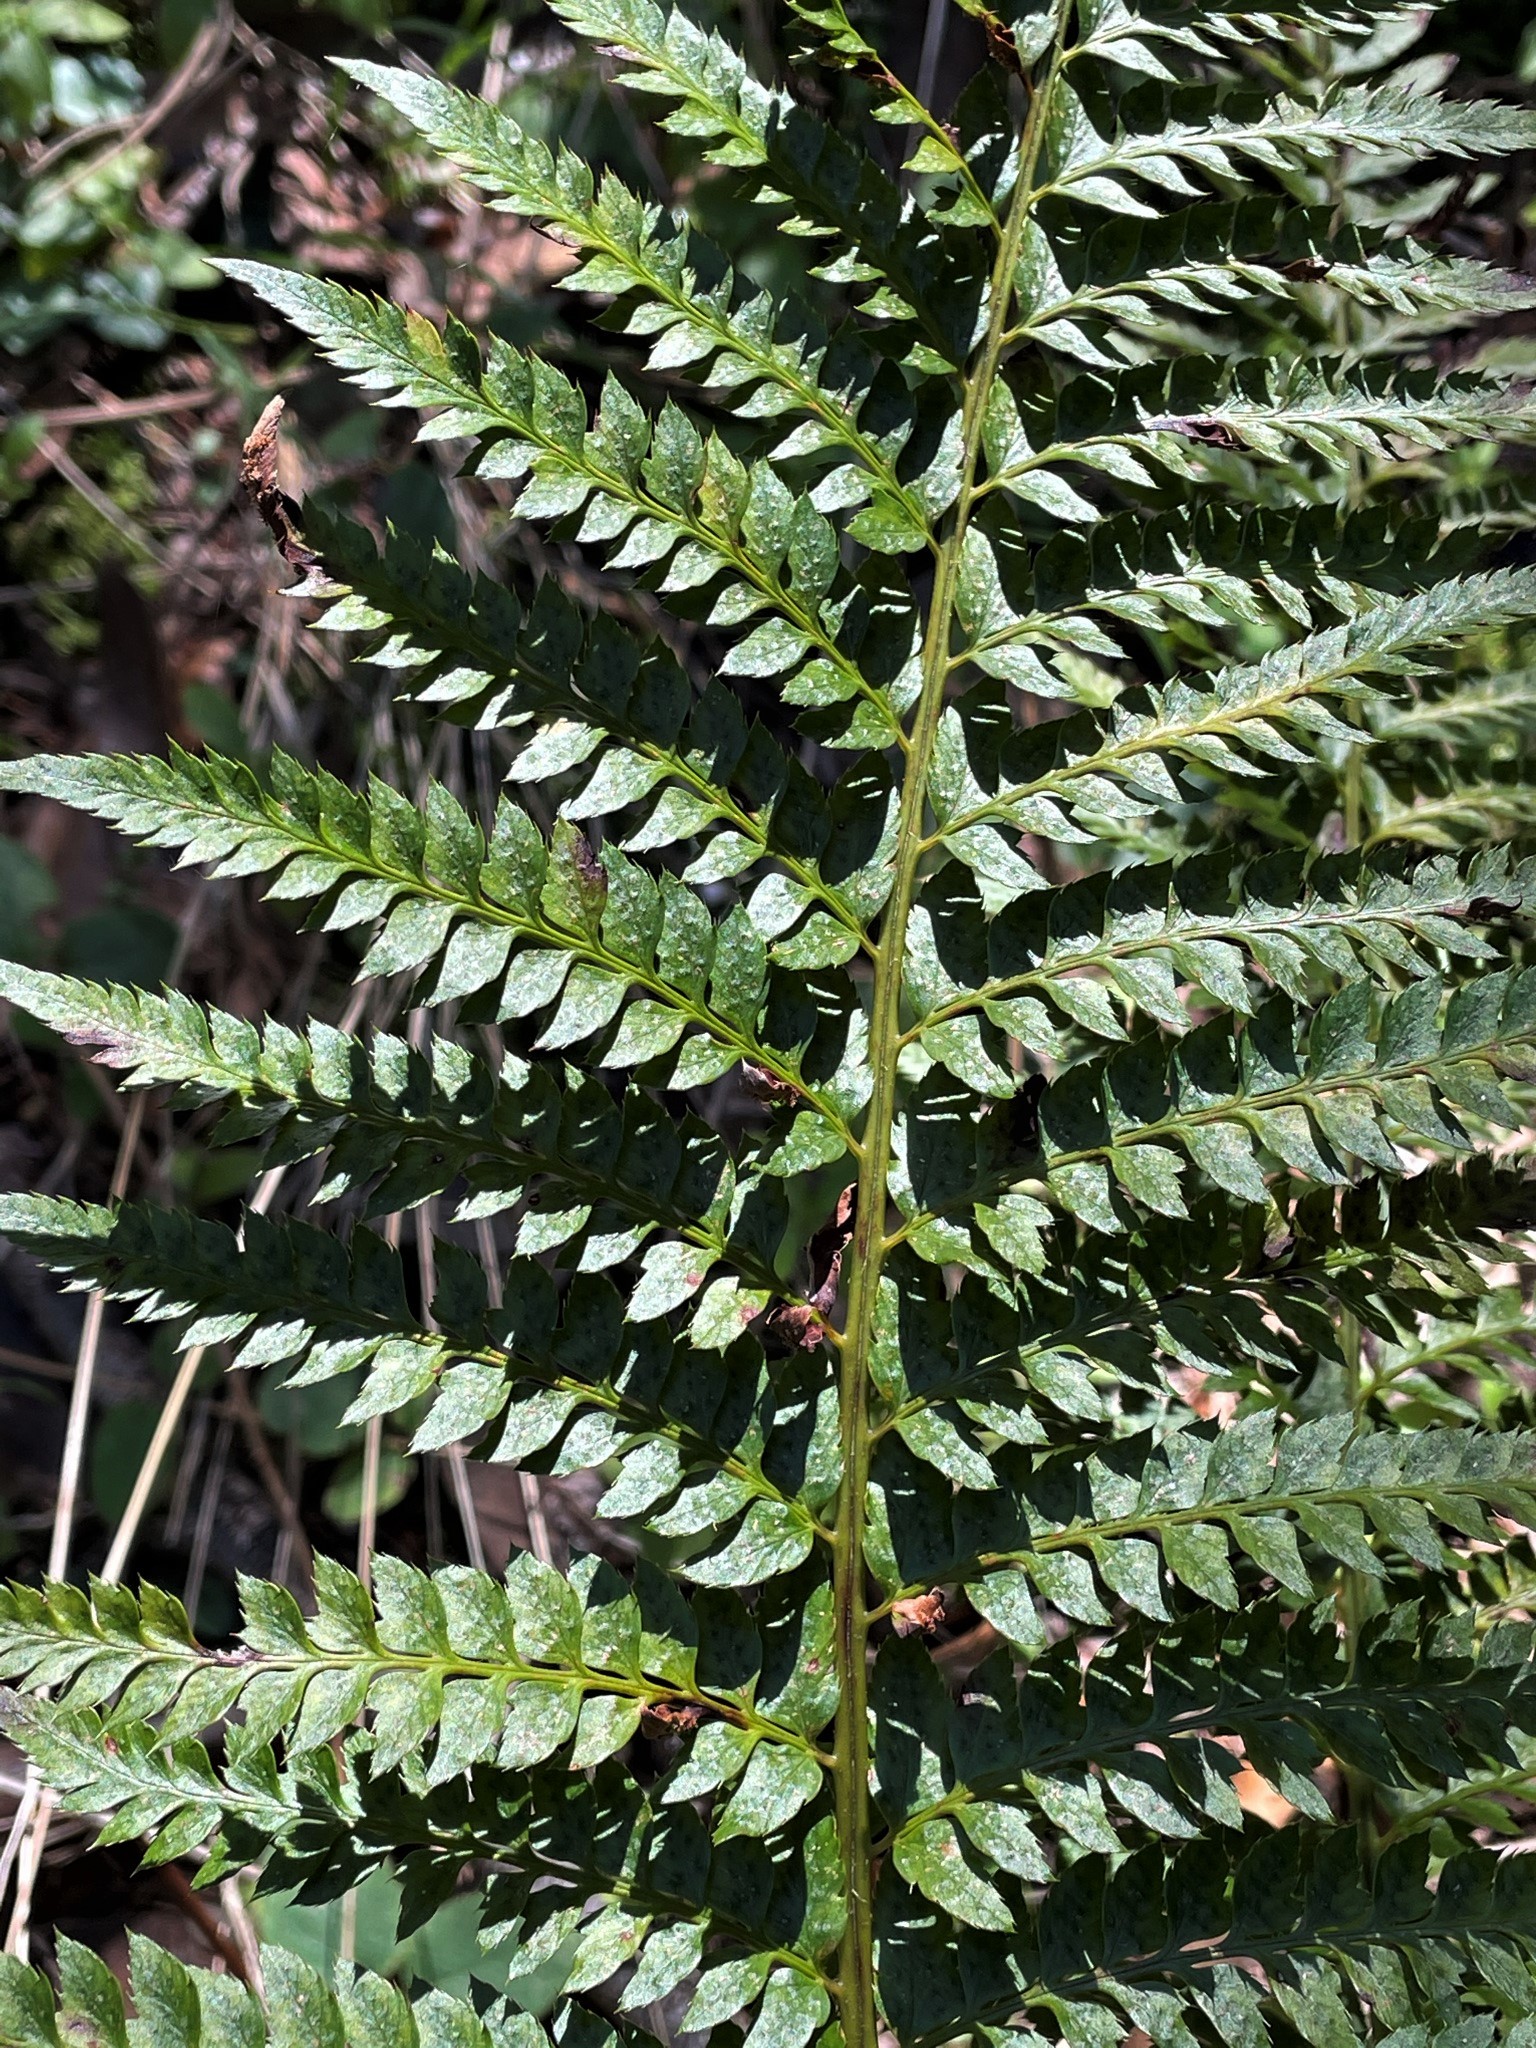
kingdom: Plantae
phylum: Tracheophyta
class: Polypodiopsida
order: Polypodiales
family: Dryopteridaceae
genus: Polystichum
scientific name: Polystichum californicum
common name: California sword fern
